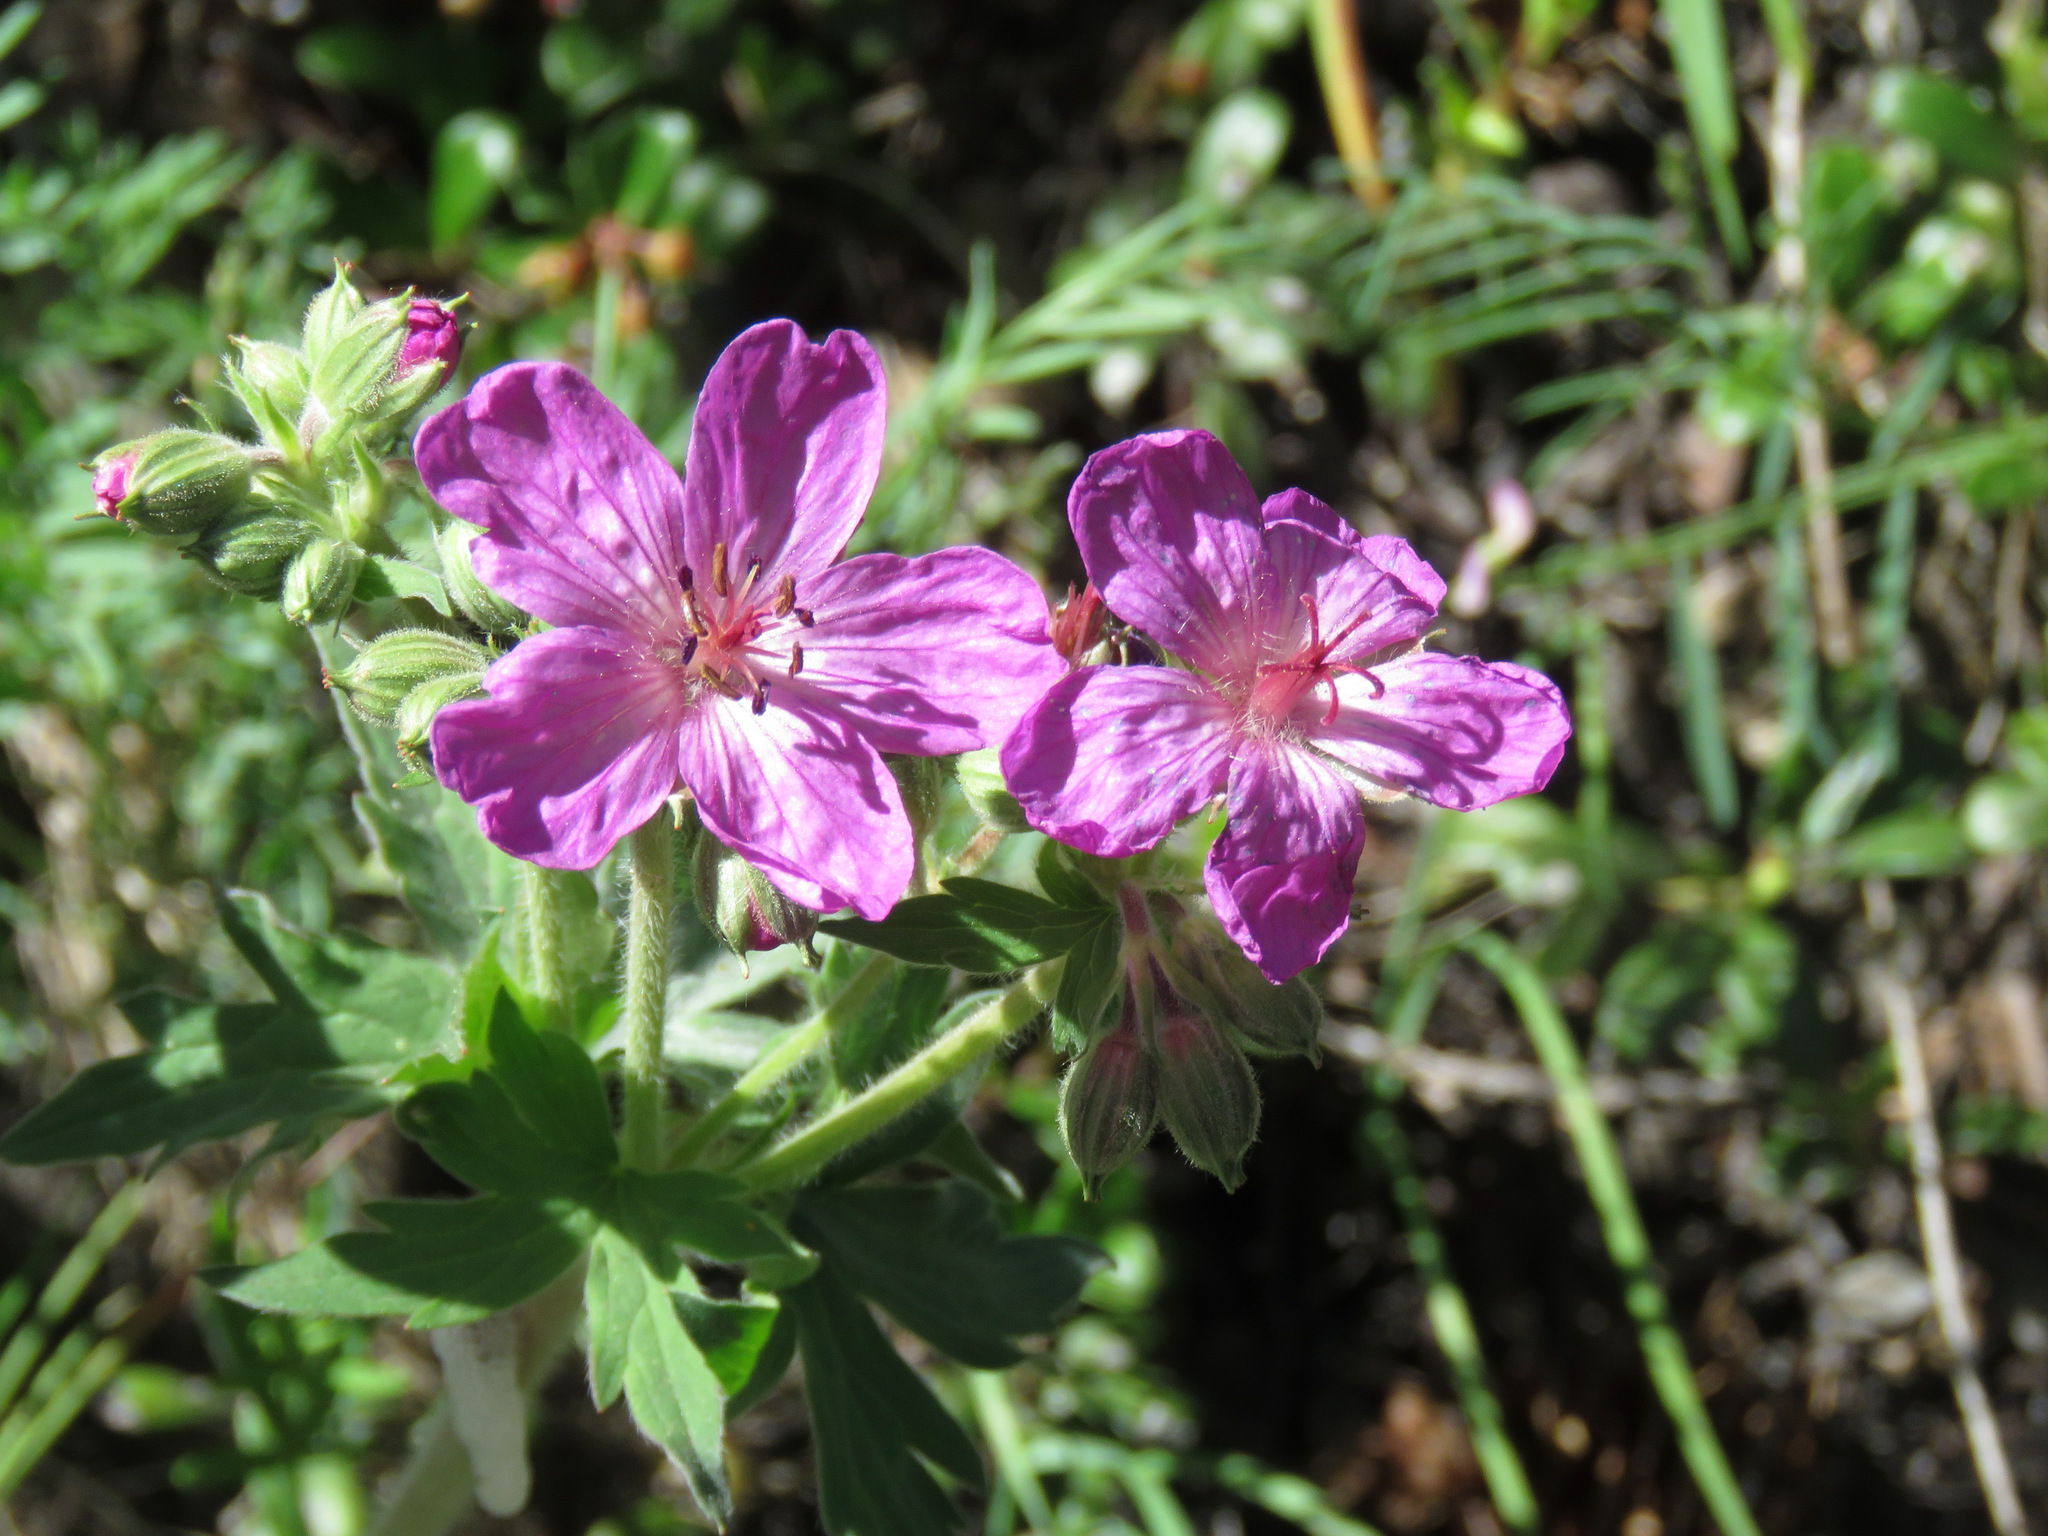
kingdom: Plantae
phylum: Tracheophyta
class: Magnoliopsida
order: Geraniales
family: Geraniaceae
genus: Geranium
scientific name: Geranium viscosissimum
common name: Purple geranium
